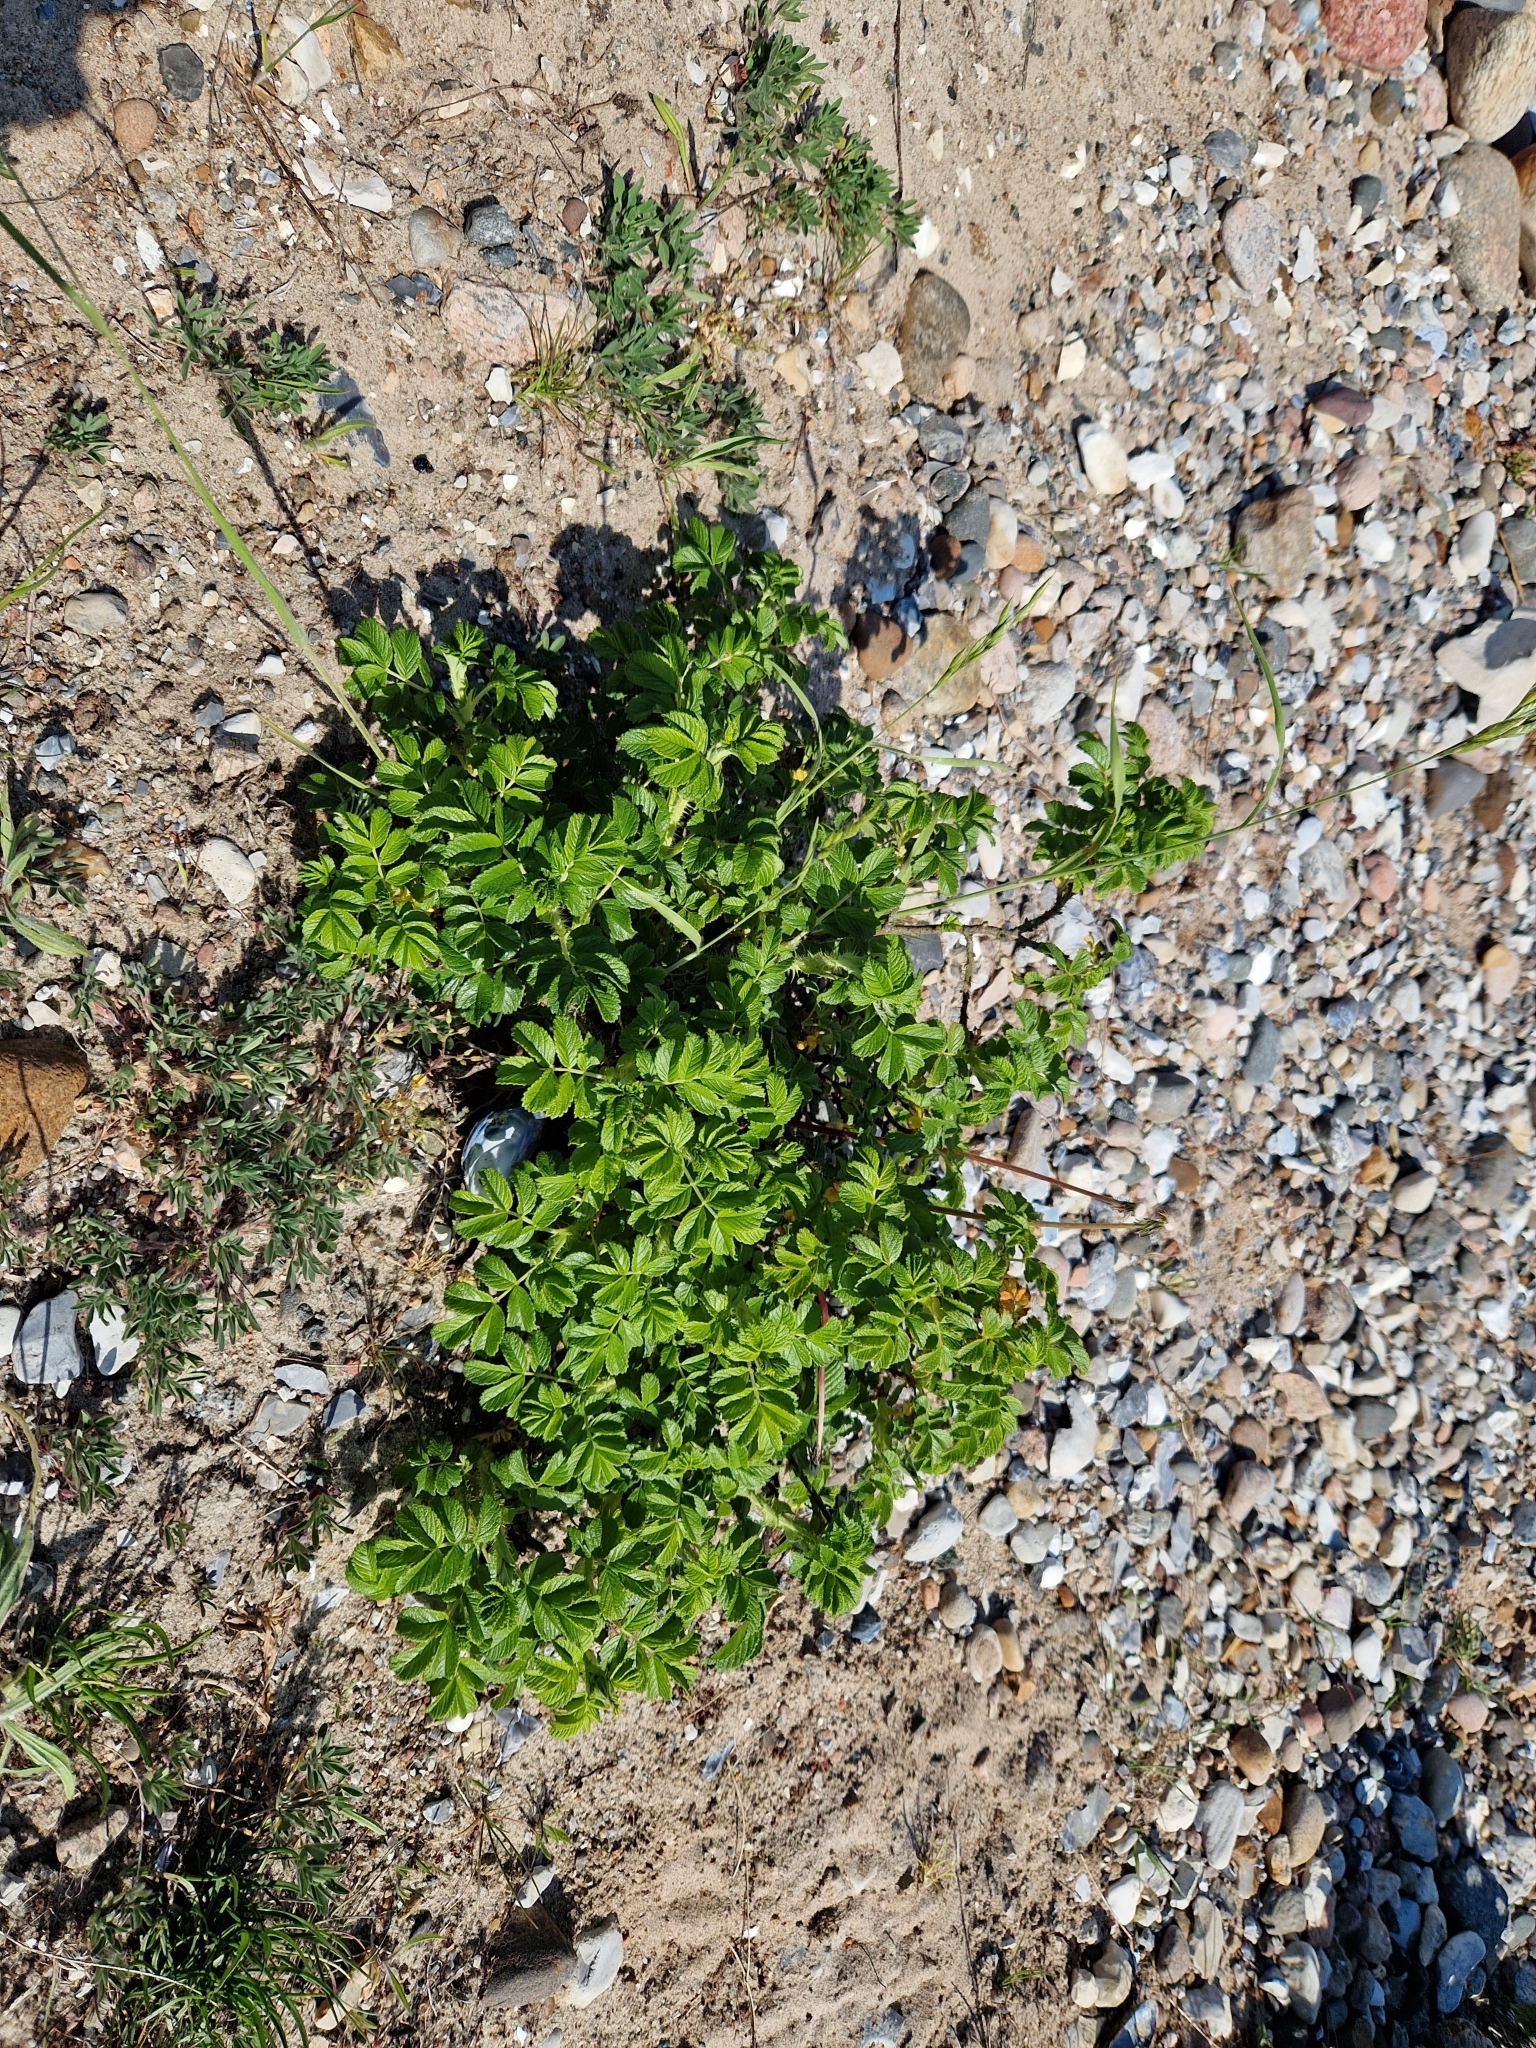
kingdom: Plantae
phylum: Tracheophyta
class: Magnoliopsida
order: Rosales
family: Rosaceae
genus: Rosa
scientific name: Rosa rugosa
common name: Japanese rose
